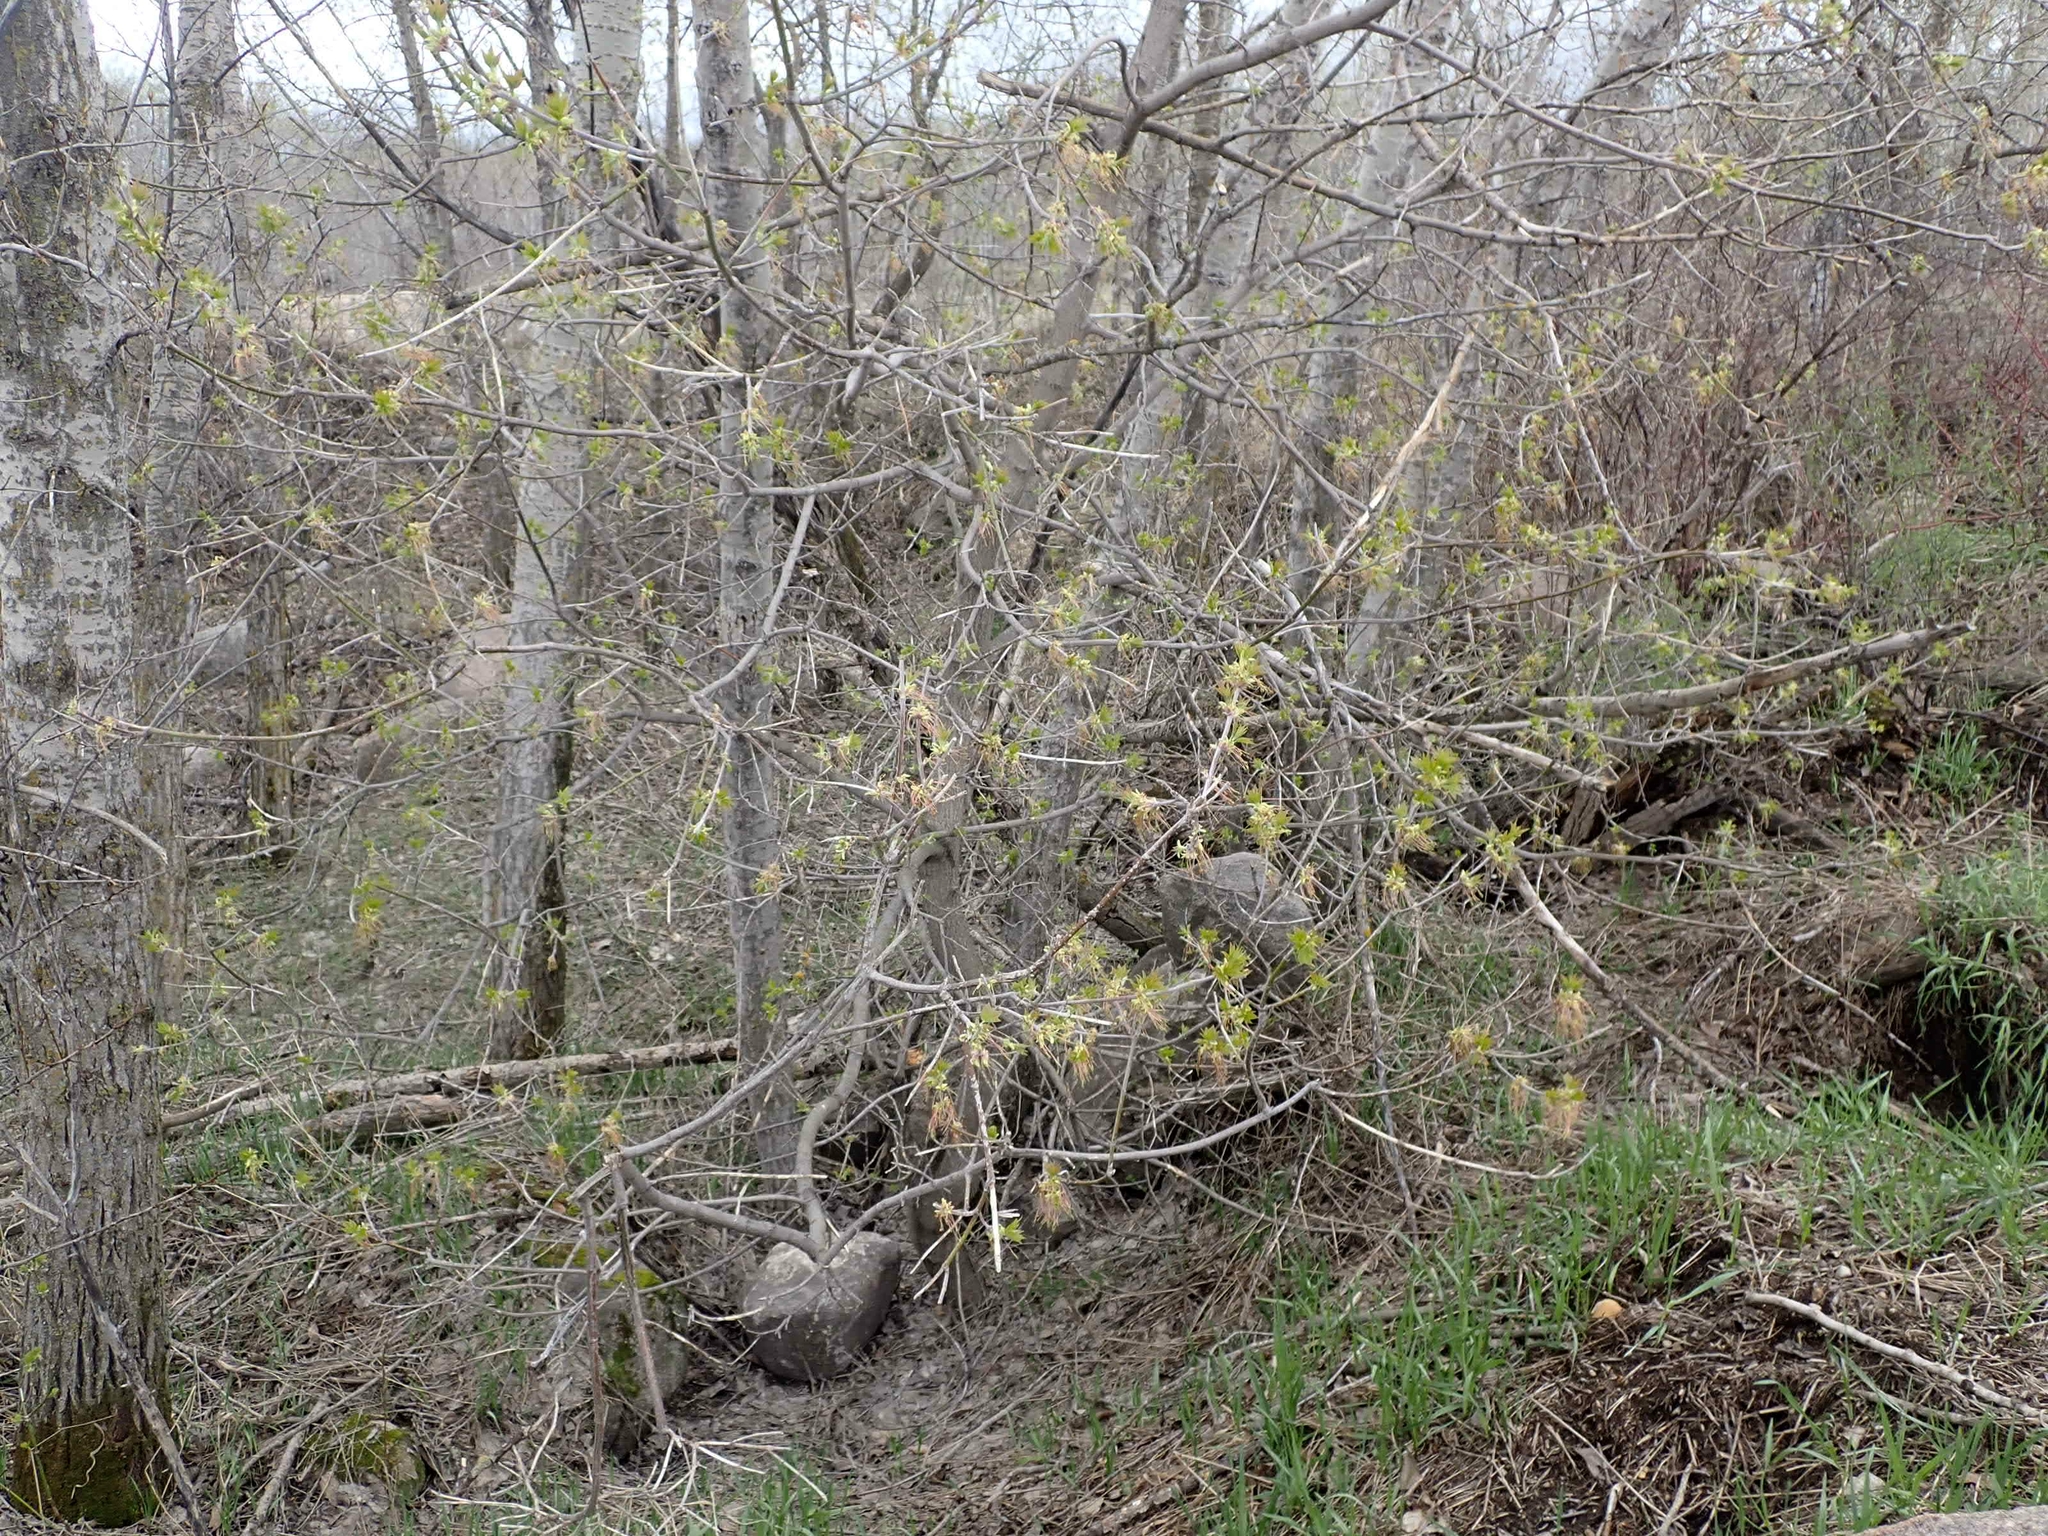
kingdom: Plantae
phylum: Tracheophyta
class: Magnoliopsida
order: Sapindales
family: Sapindaceae
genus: Acer
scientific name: Acer negundo
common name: Ashleaf maple
